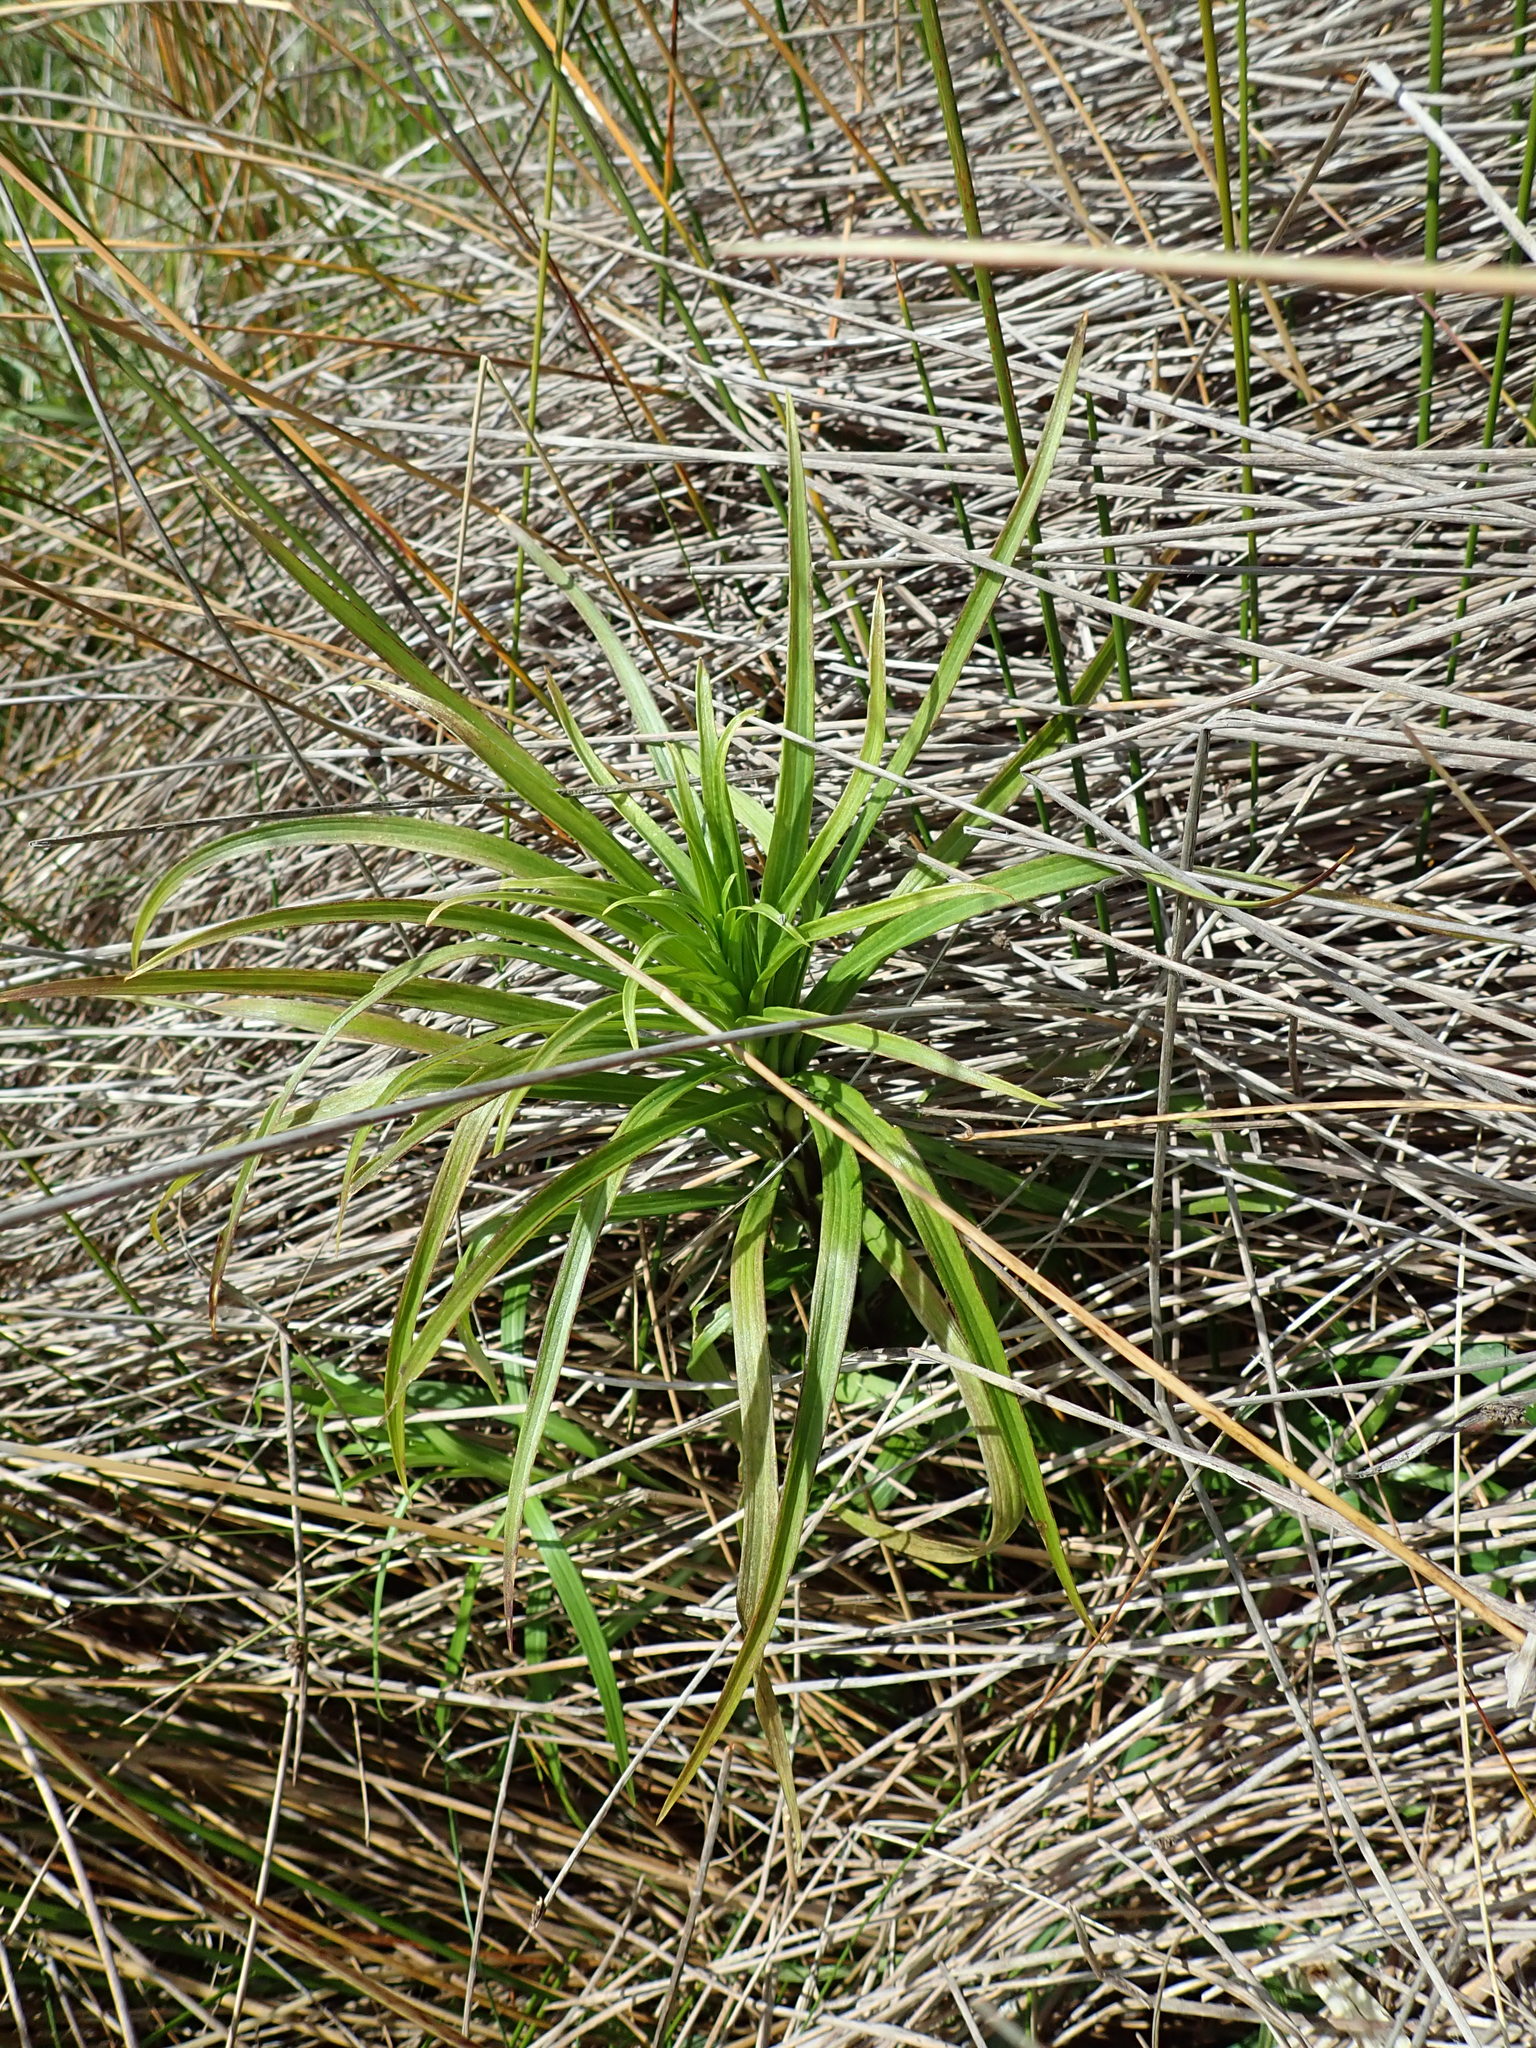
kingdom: Plantae
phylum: Tracheophyta
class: Liliopsida
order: Liliales
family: Liliaceae
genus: Lilium
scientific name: Lilium formosanum
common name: Formosa lily
